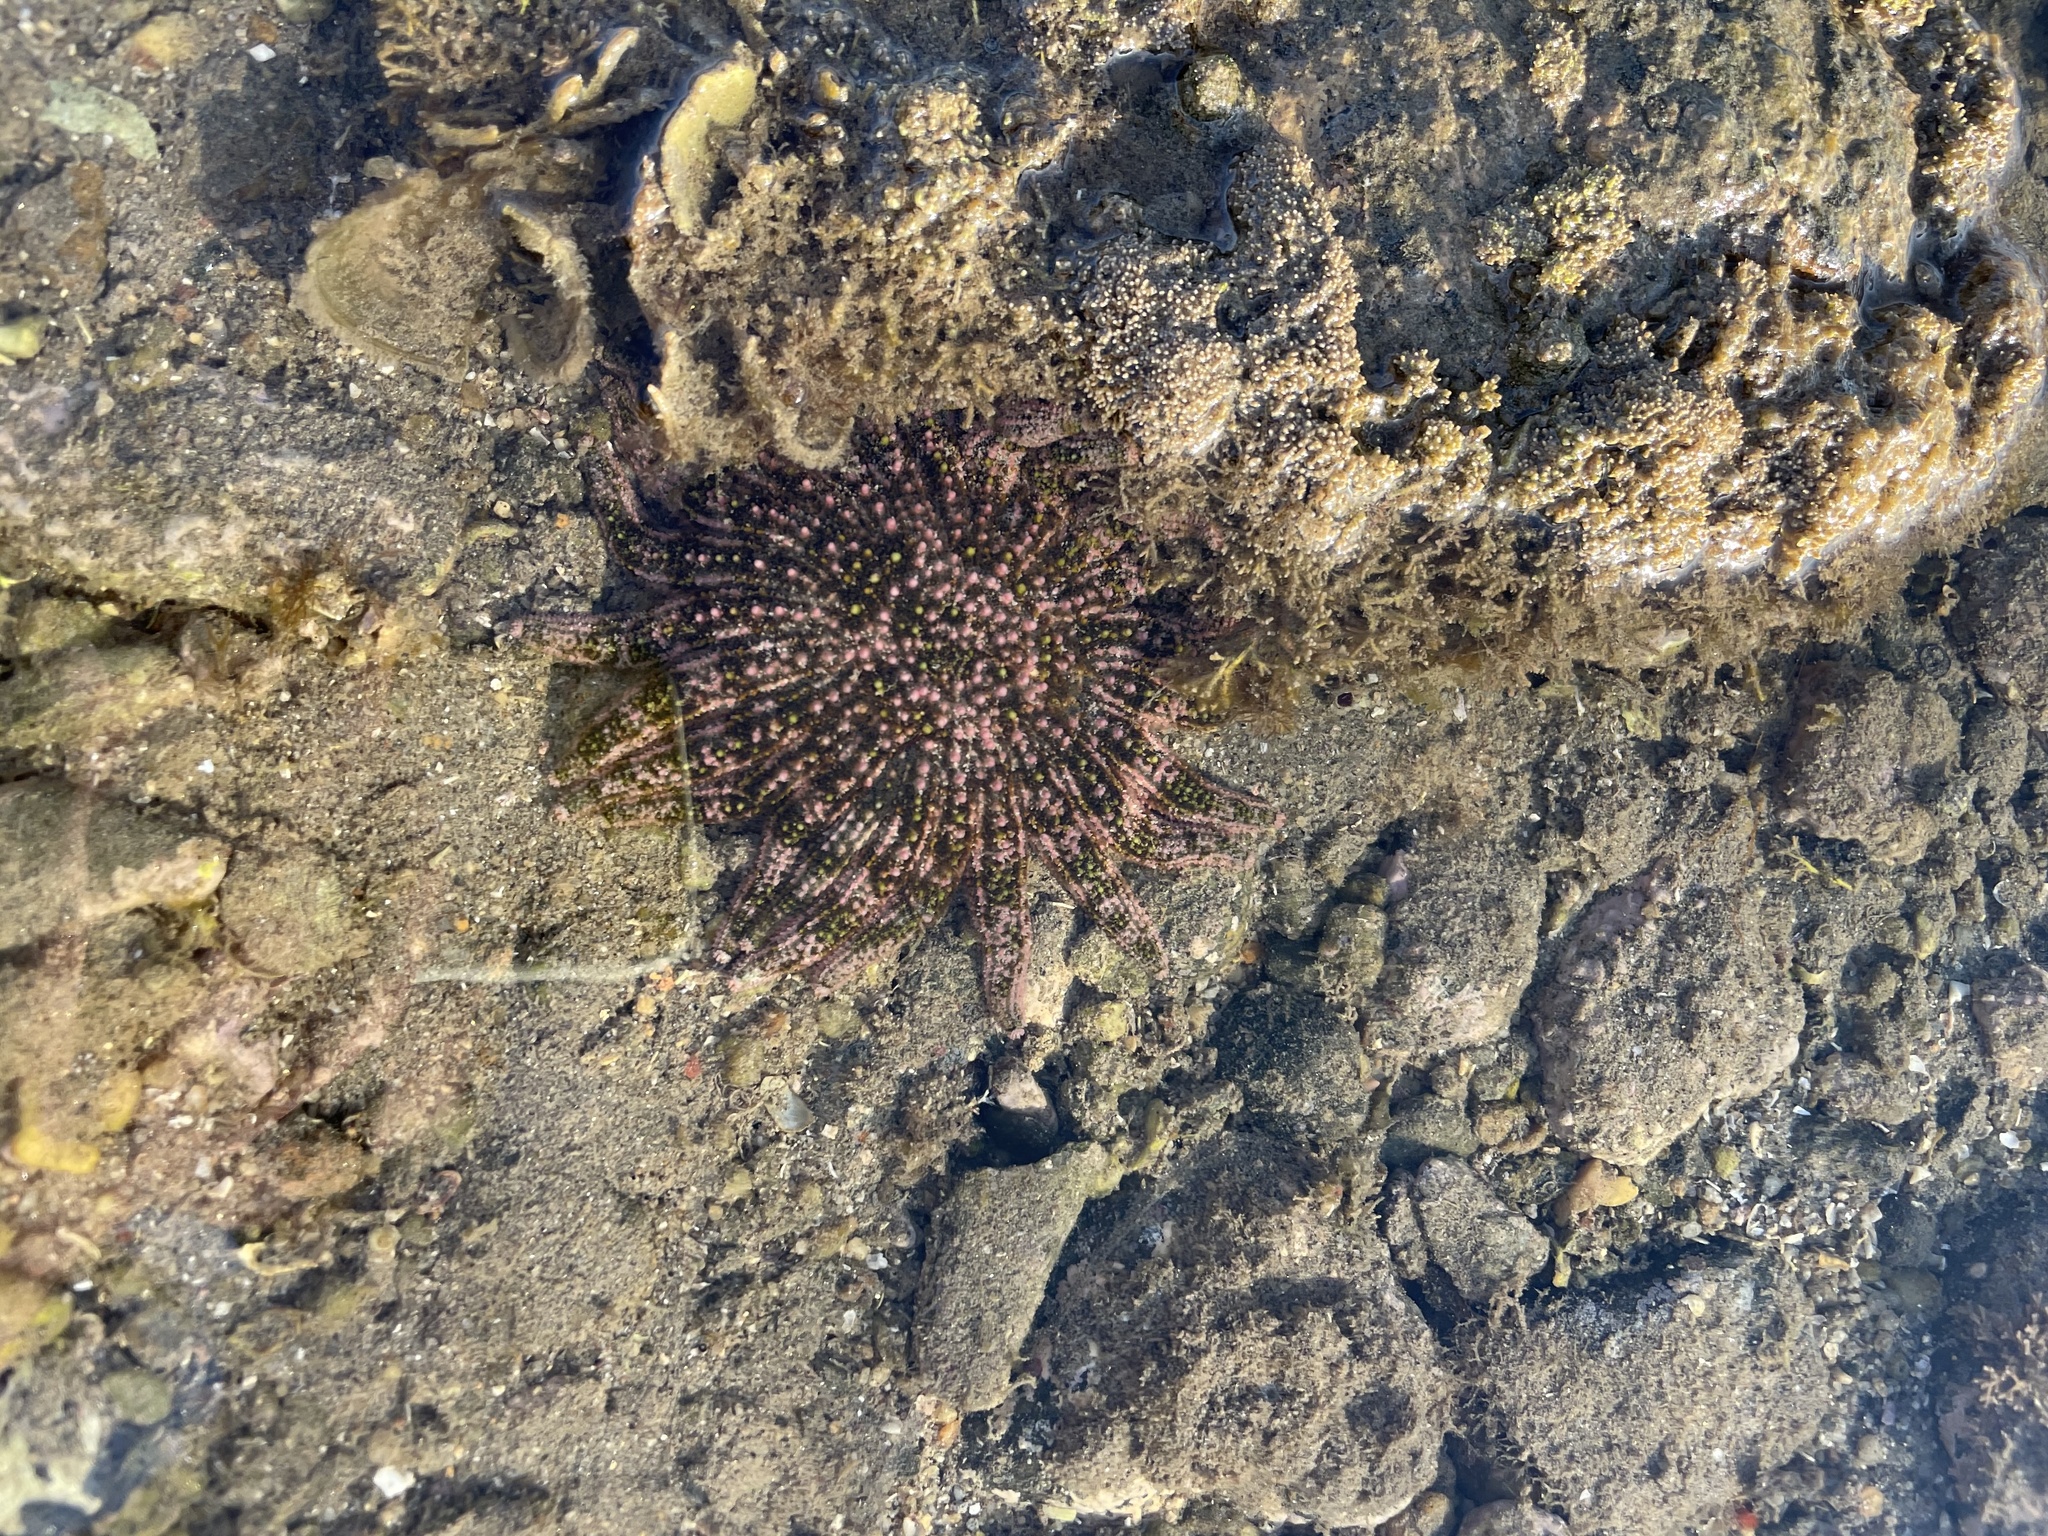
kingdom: Animalia
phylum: Echinodermata
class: Asteroidea
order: Forcipulatida
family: Heliasteridae
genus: Heliaster
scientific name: Heliaster kubiniji
